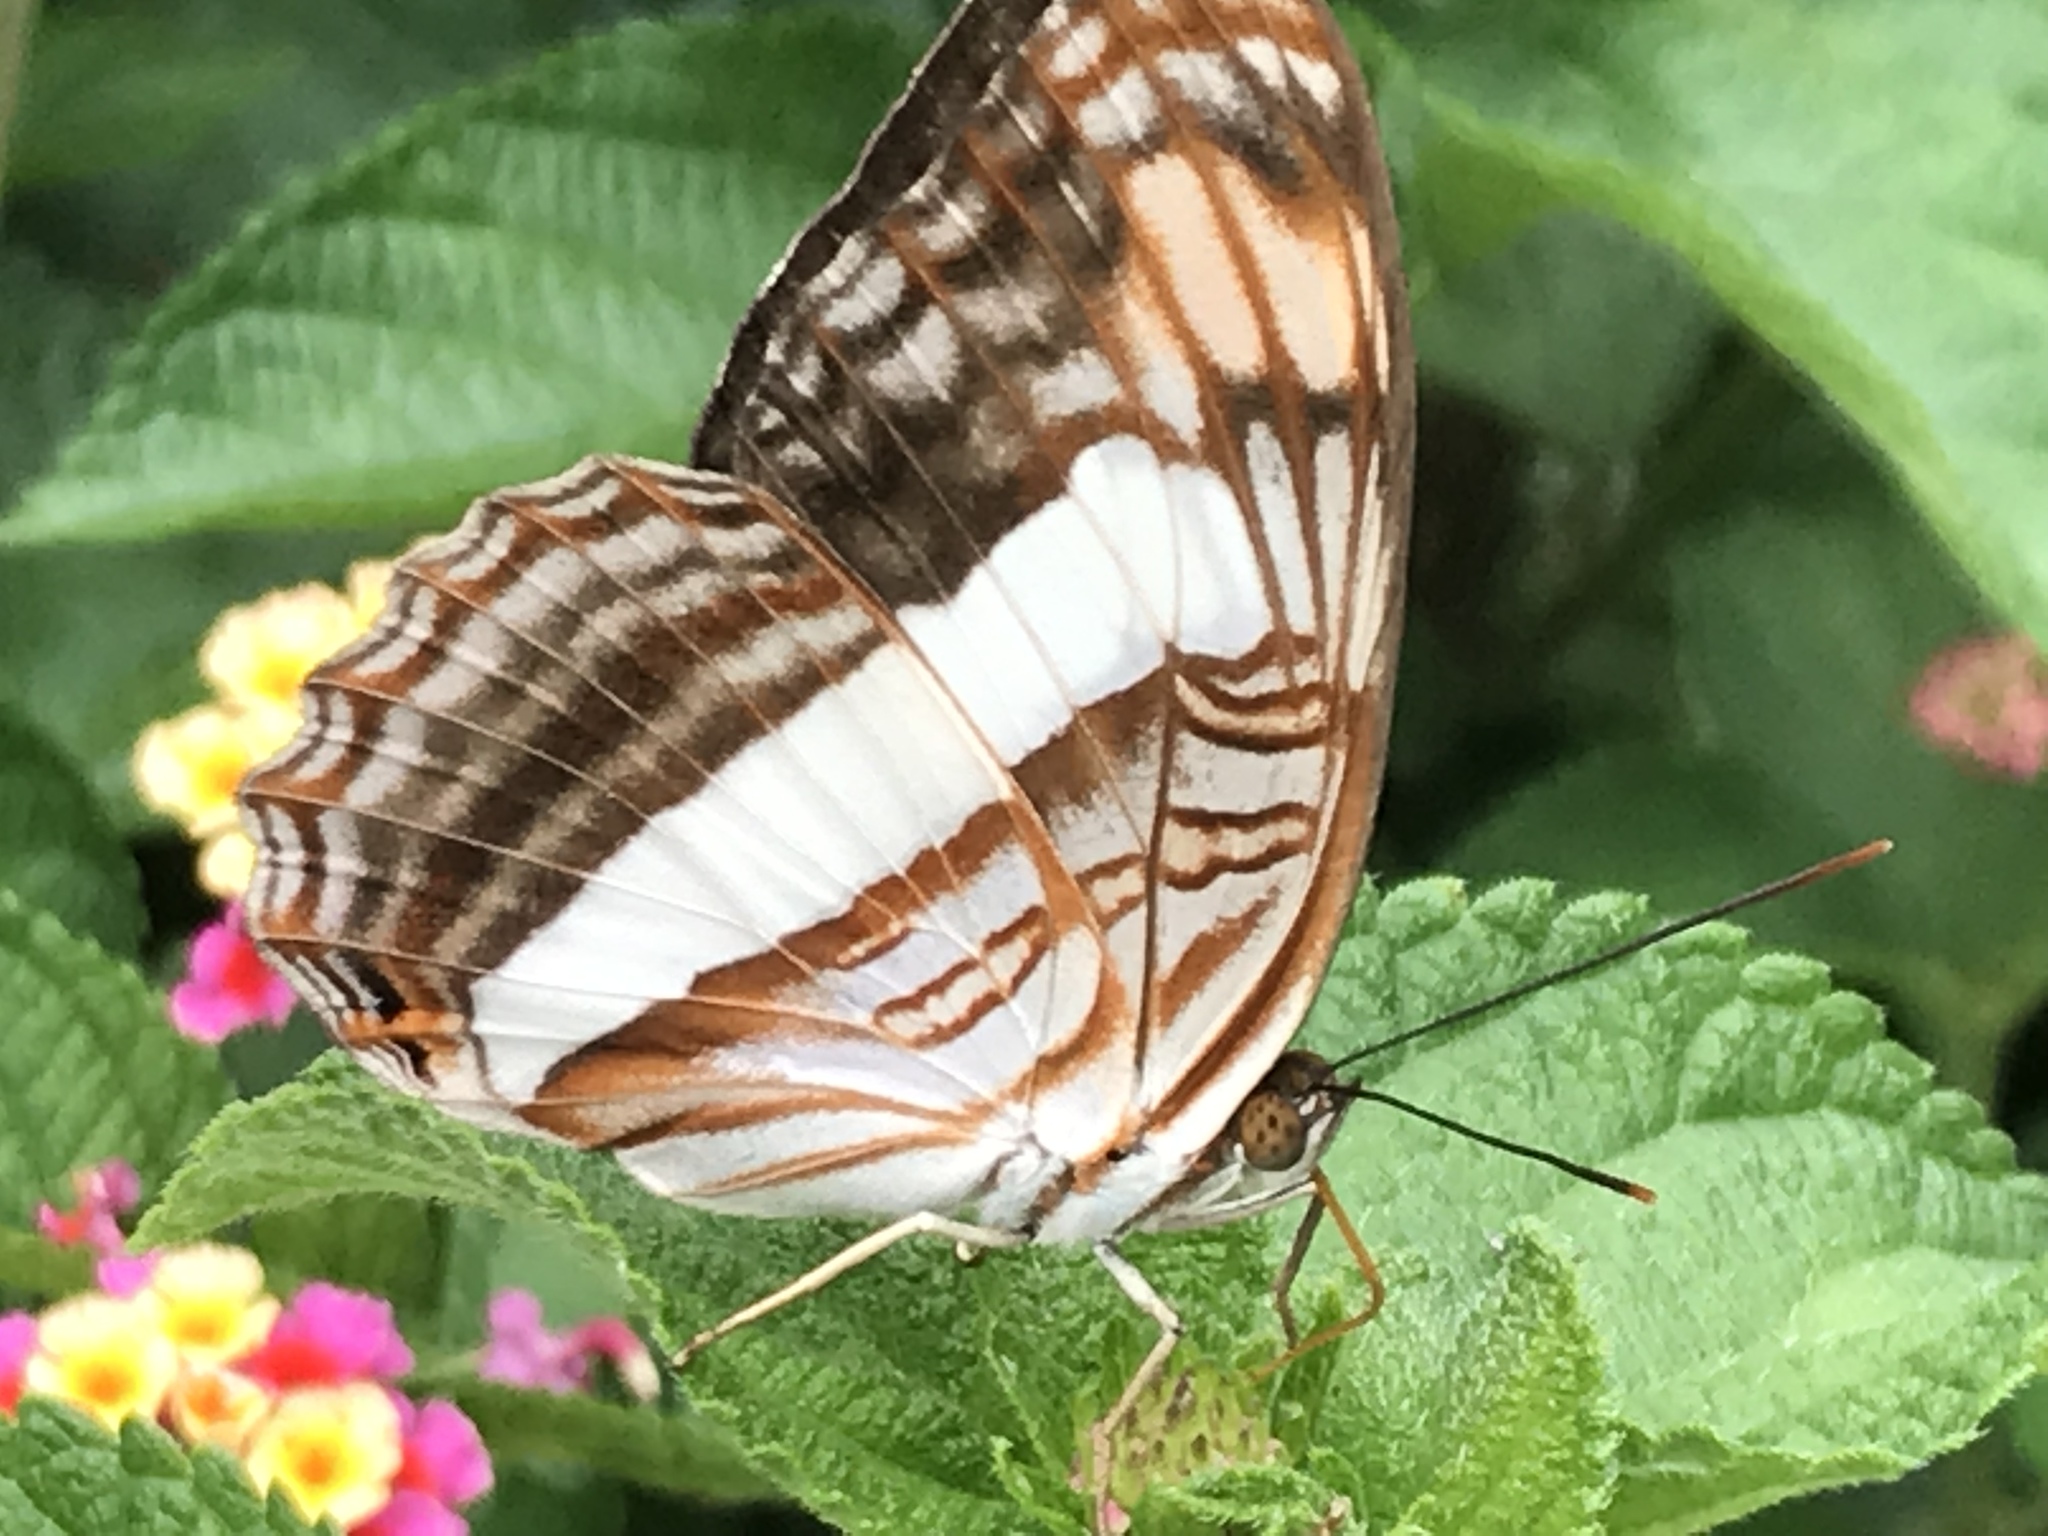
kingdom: Animalia
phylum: Arthropoda
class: Insecta
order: Lepidoptera
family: Nymphalidae
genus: Limenitis
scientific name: Limenitis Adelpha basiloides
